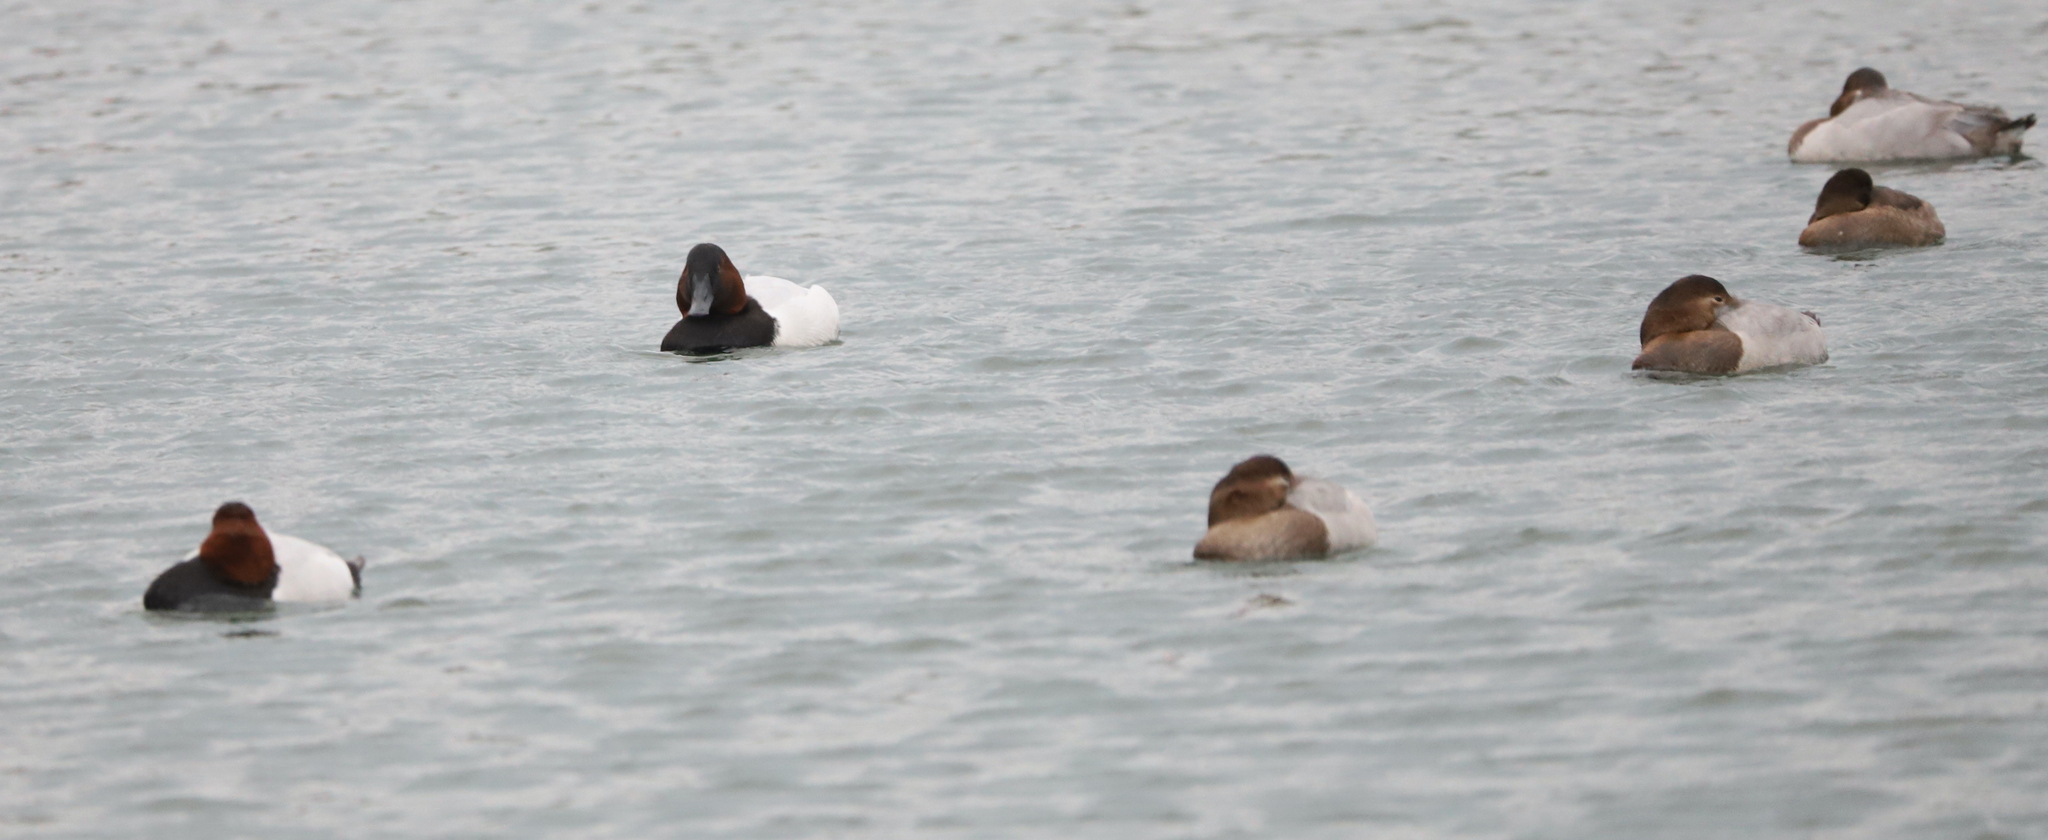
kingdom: Animalia
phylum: Chordata
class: Aves
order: Anseriformes
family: Anatidae
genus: Aythya
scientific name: Aythya valisineria
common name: Canvasback
